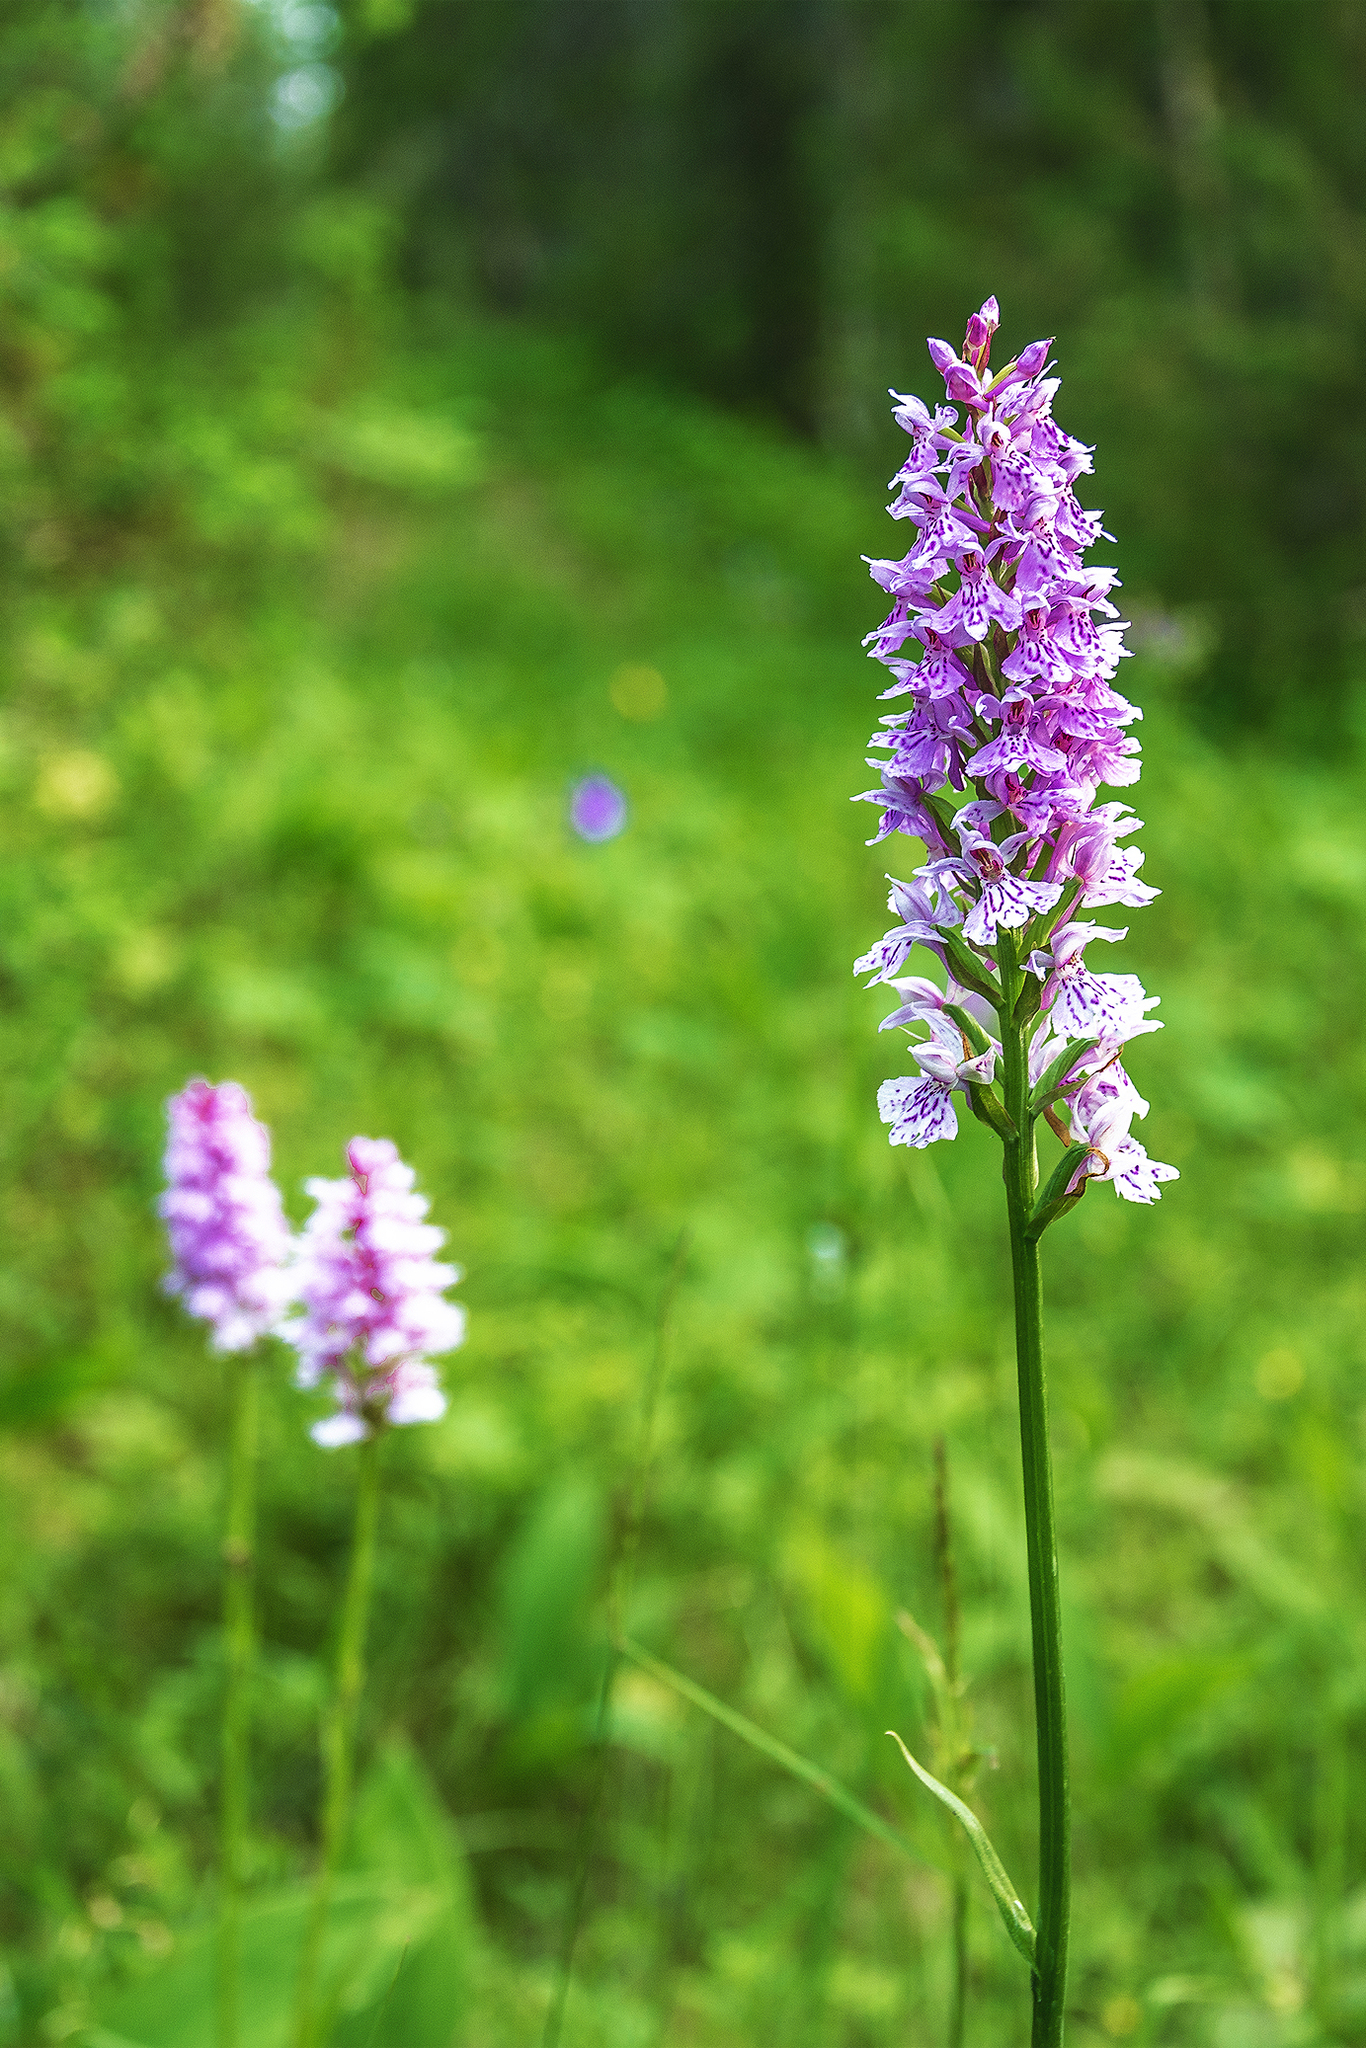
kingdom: Plantae
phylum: Tracheophyta
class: Liliopsida
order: Asparagales
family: Orchidaceae
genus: Dactylorhiza
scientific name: Dactylorhiza maculata
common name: Heath spotted-orchid
